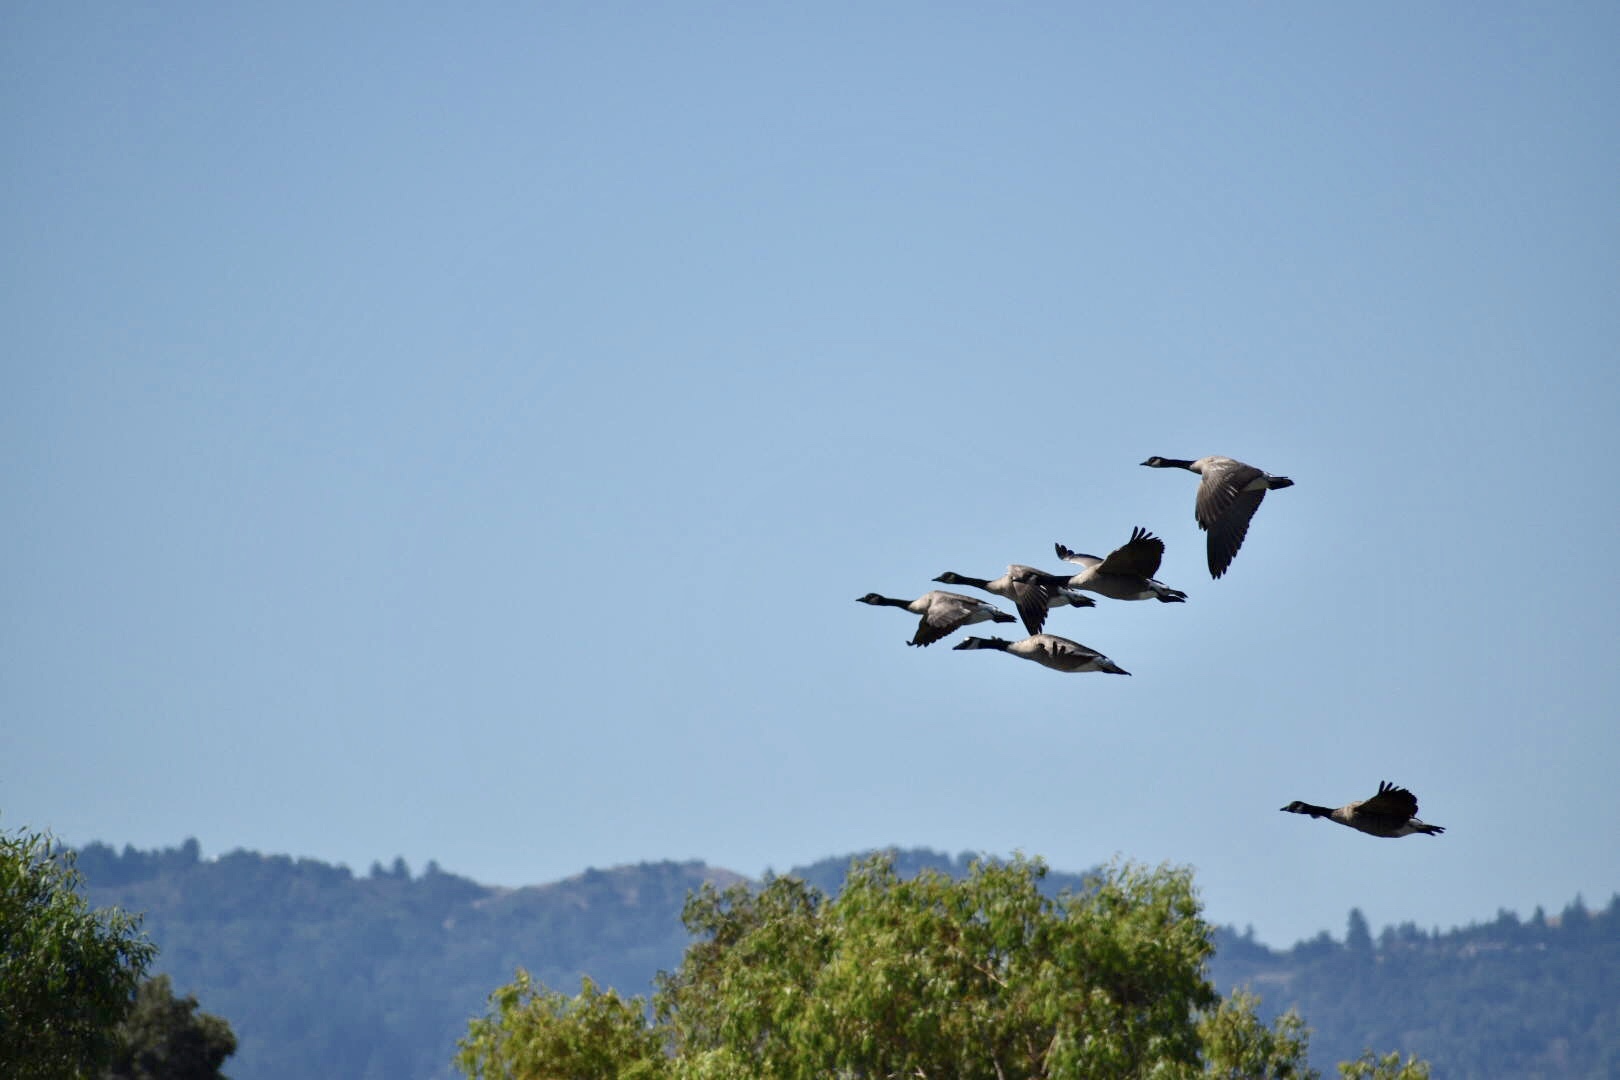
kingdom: Animalia
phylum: Chordata
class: Aves
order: Anseriformes
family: Anatidae
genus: Branta
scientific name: Branta canadensis
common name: Canada goose
